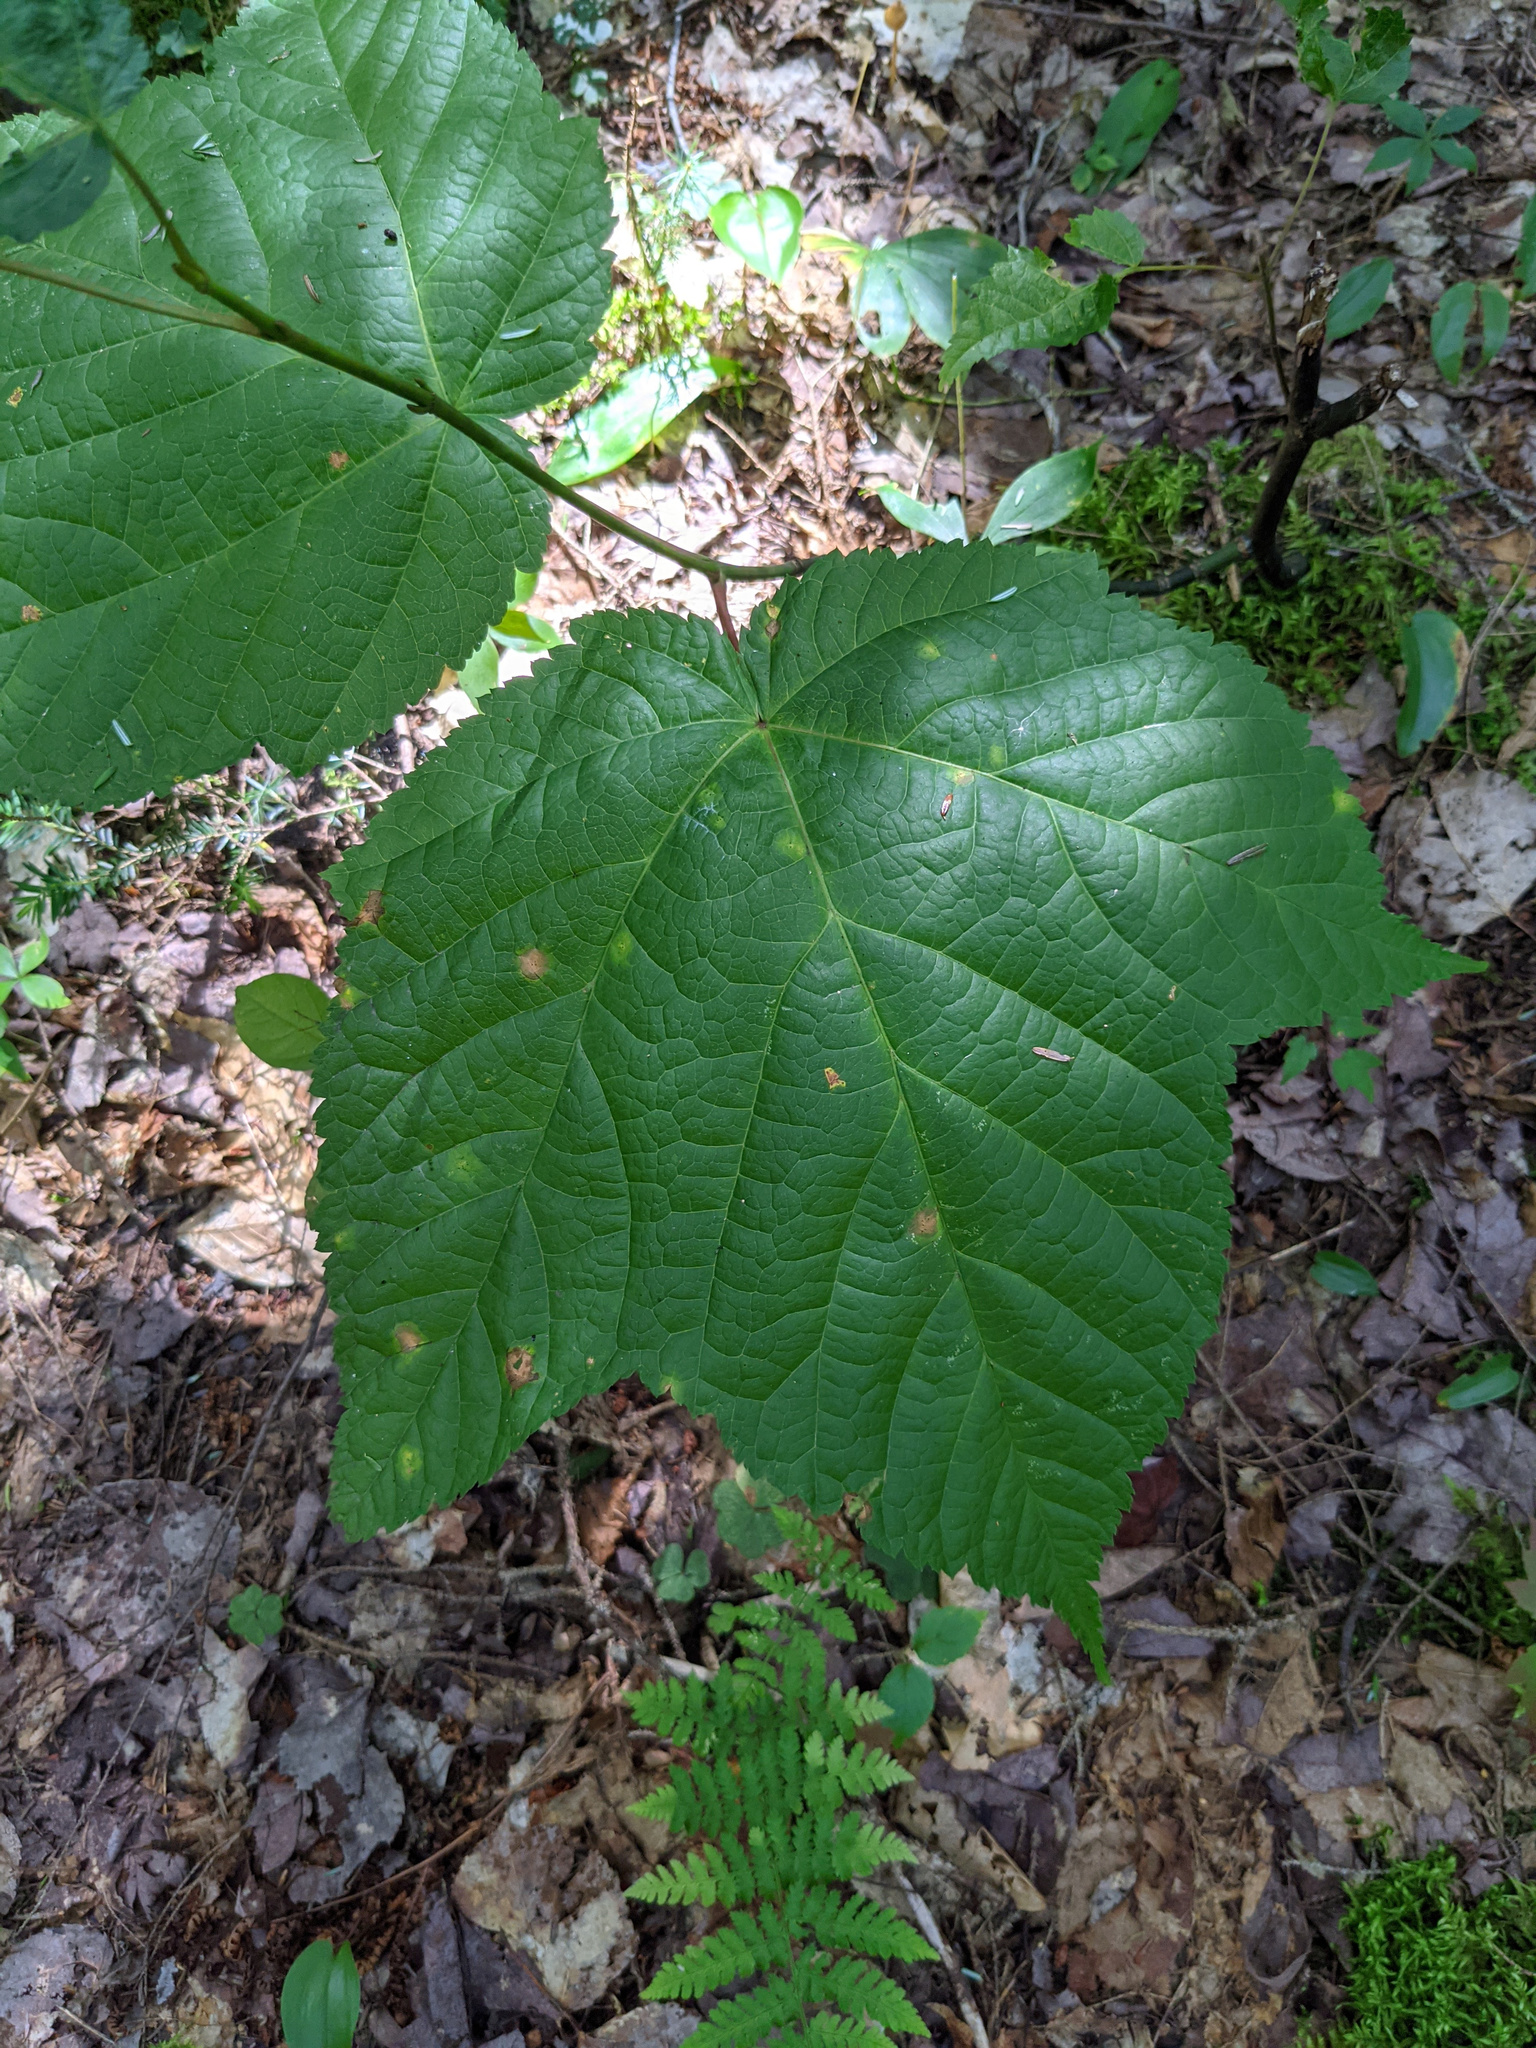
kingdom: Plantae
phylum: Tracheophyta
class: Magnoliopsida
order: Sapindales
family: Sapindaceae
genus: Acer
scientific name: Acer pensylvanicum
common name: Moosewood
